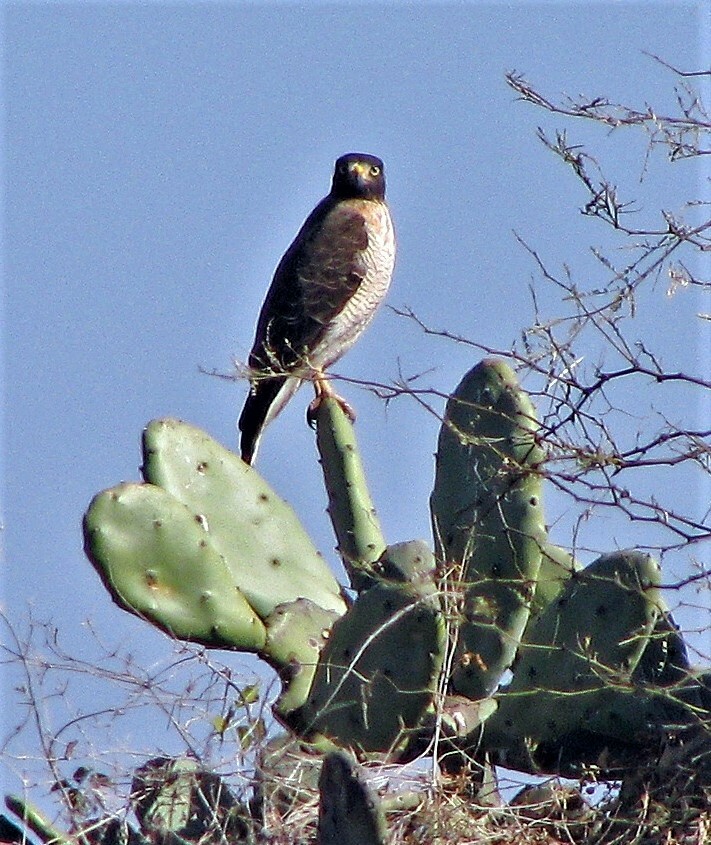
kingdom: Animalia
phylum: Chordata
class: Aves
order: Accipitriformes
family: Accipitridae
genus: Rupornis
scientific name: Rupornis magnirostris
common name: Roadside hawk
